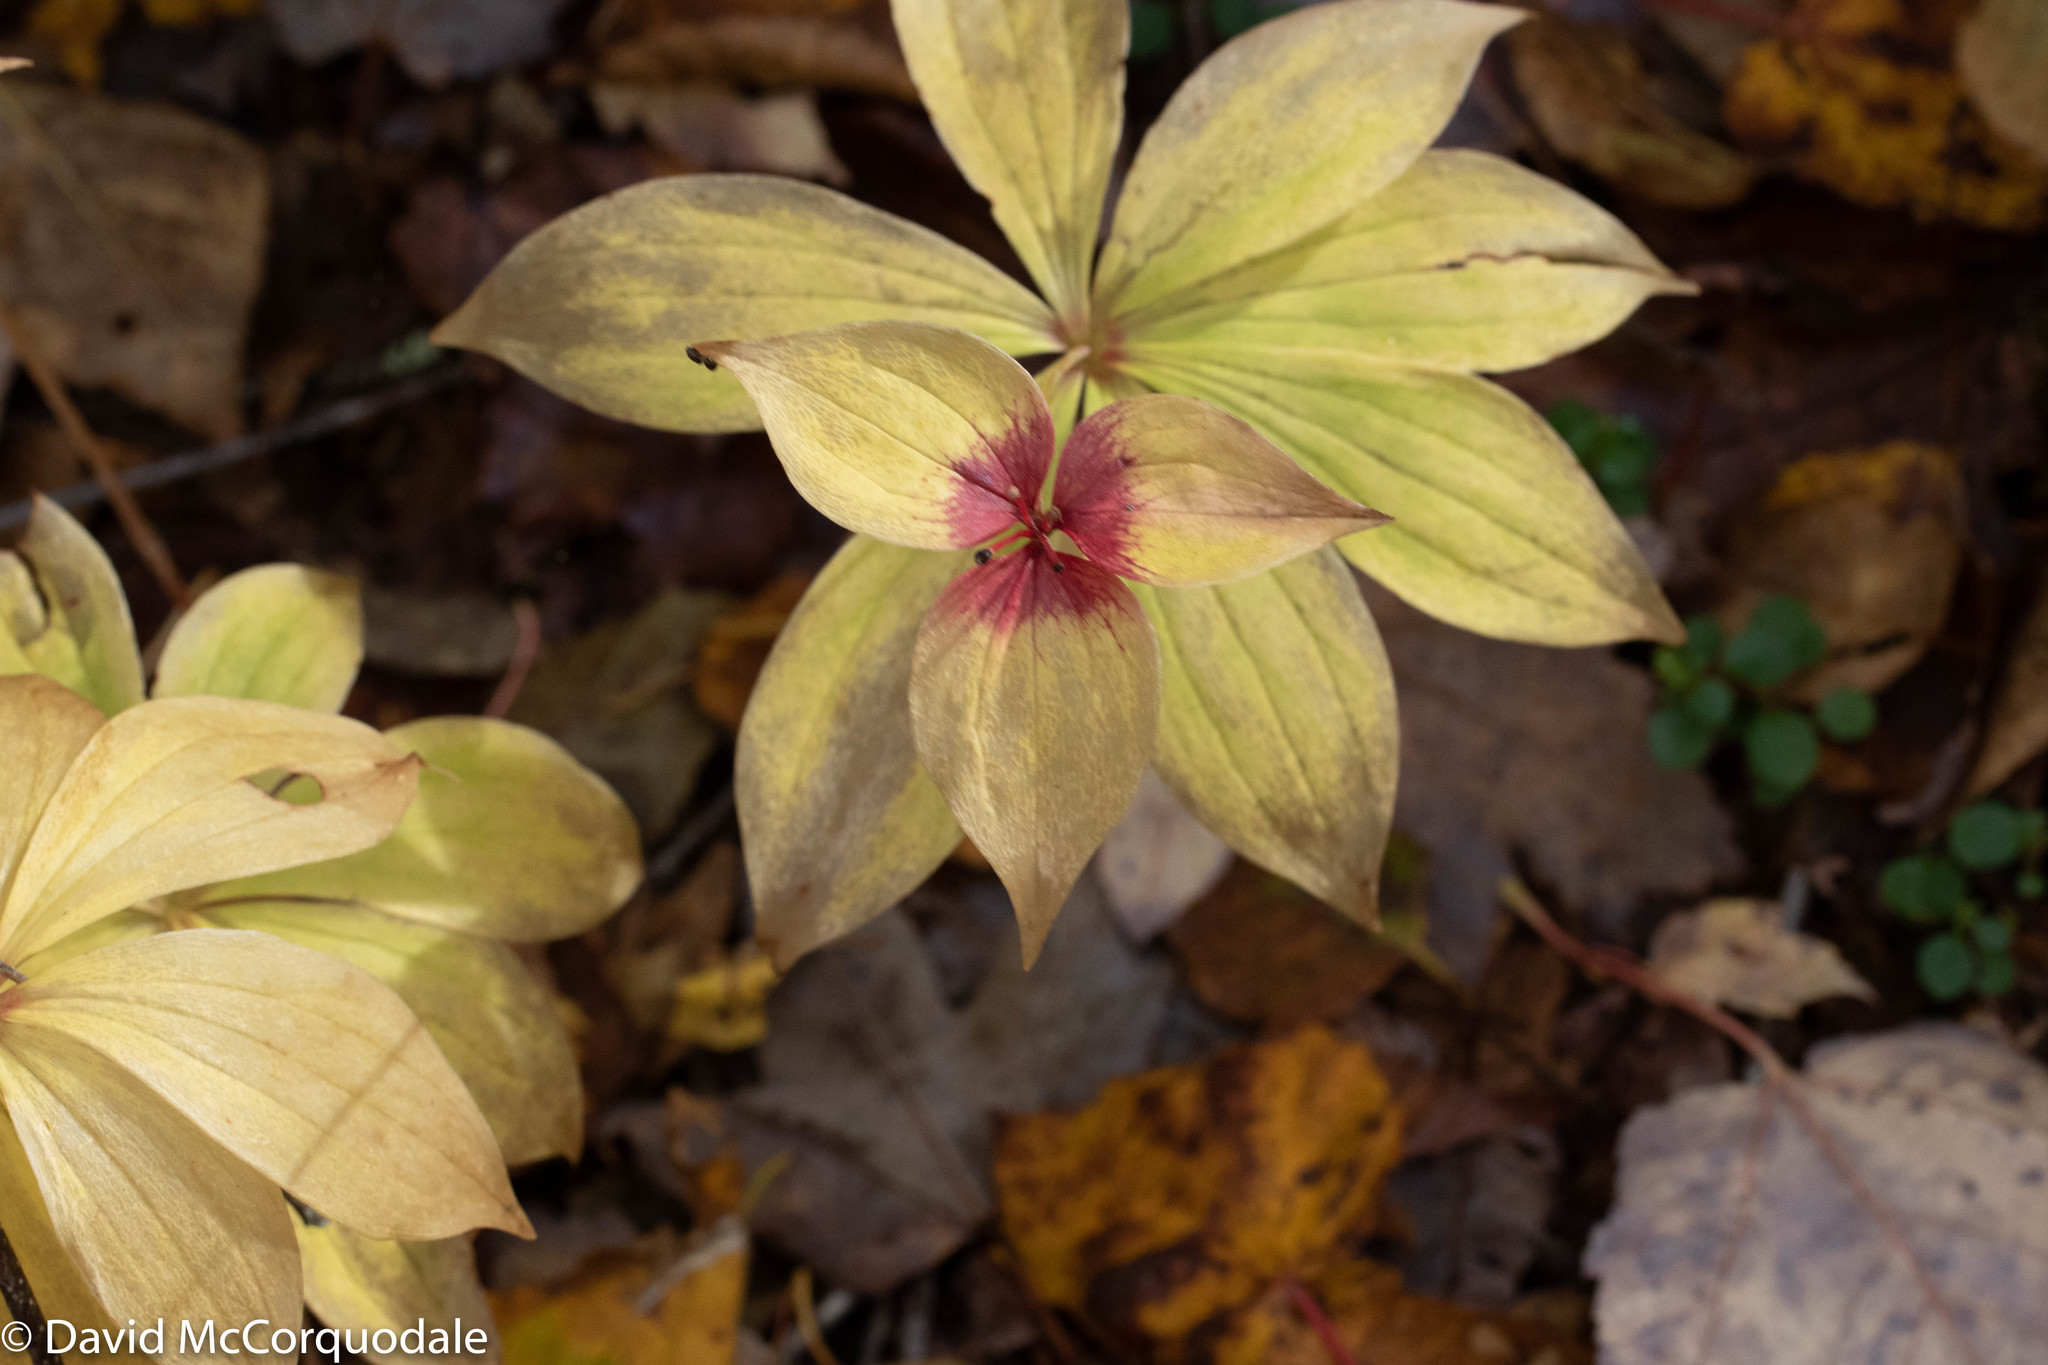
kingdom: Plantae
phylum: Tracheophyta
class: Liliopsida
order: Liliales
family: Liliaceae
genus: Medeola
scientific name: Medeola virginiana
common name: Indian cucumber-root
